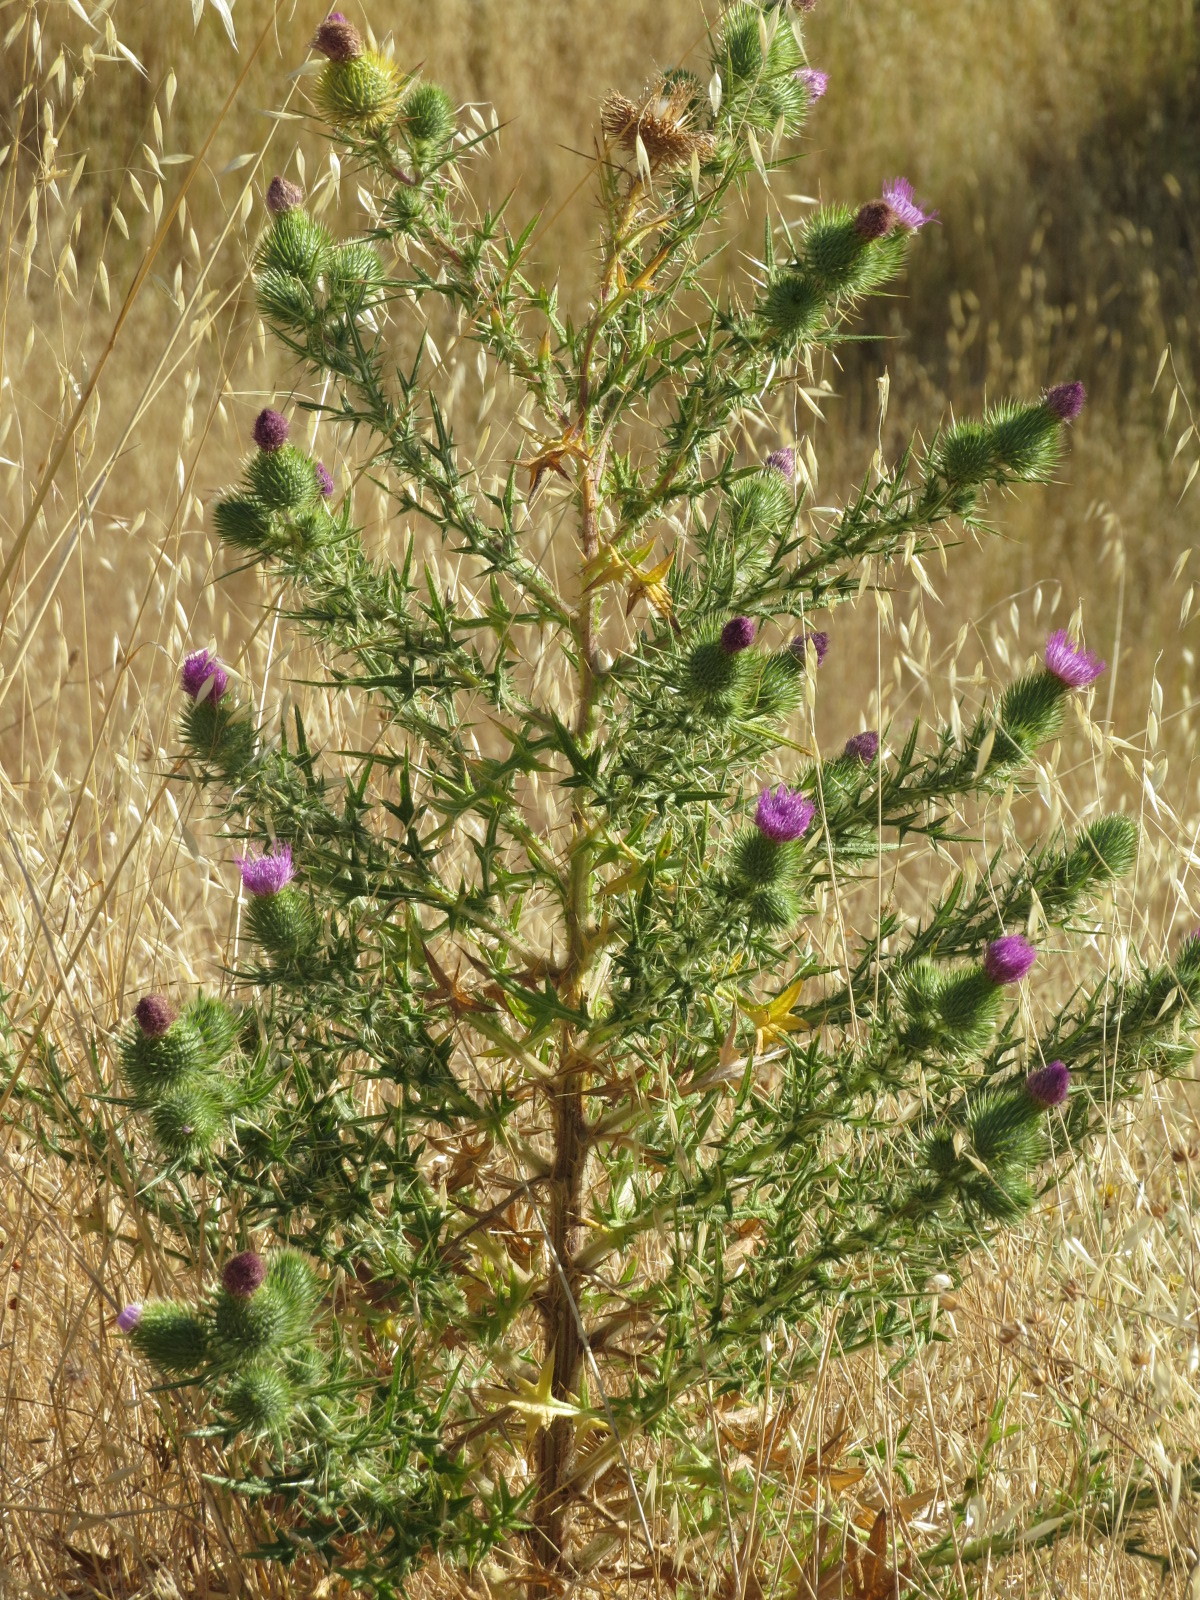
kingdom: Plantae
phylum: Tracheophyta
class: Magnoliopsida
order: Asterales
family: Asteraceae
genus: Cirsium
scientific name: Cirsium vulgare
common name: Bull thistle
